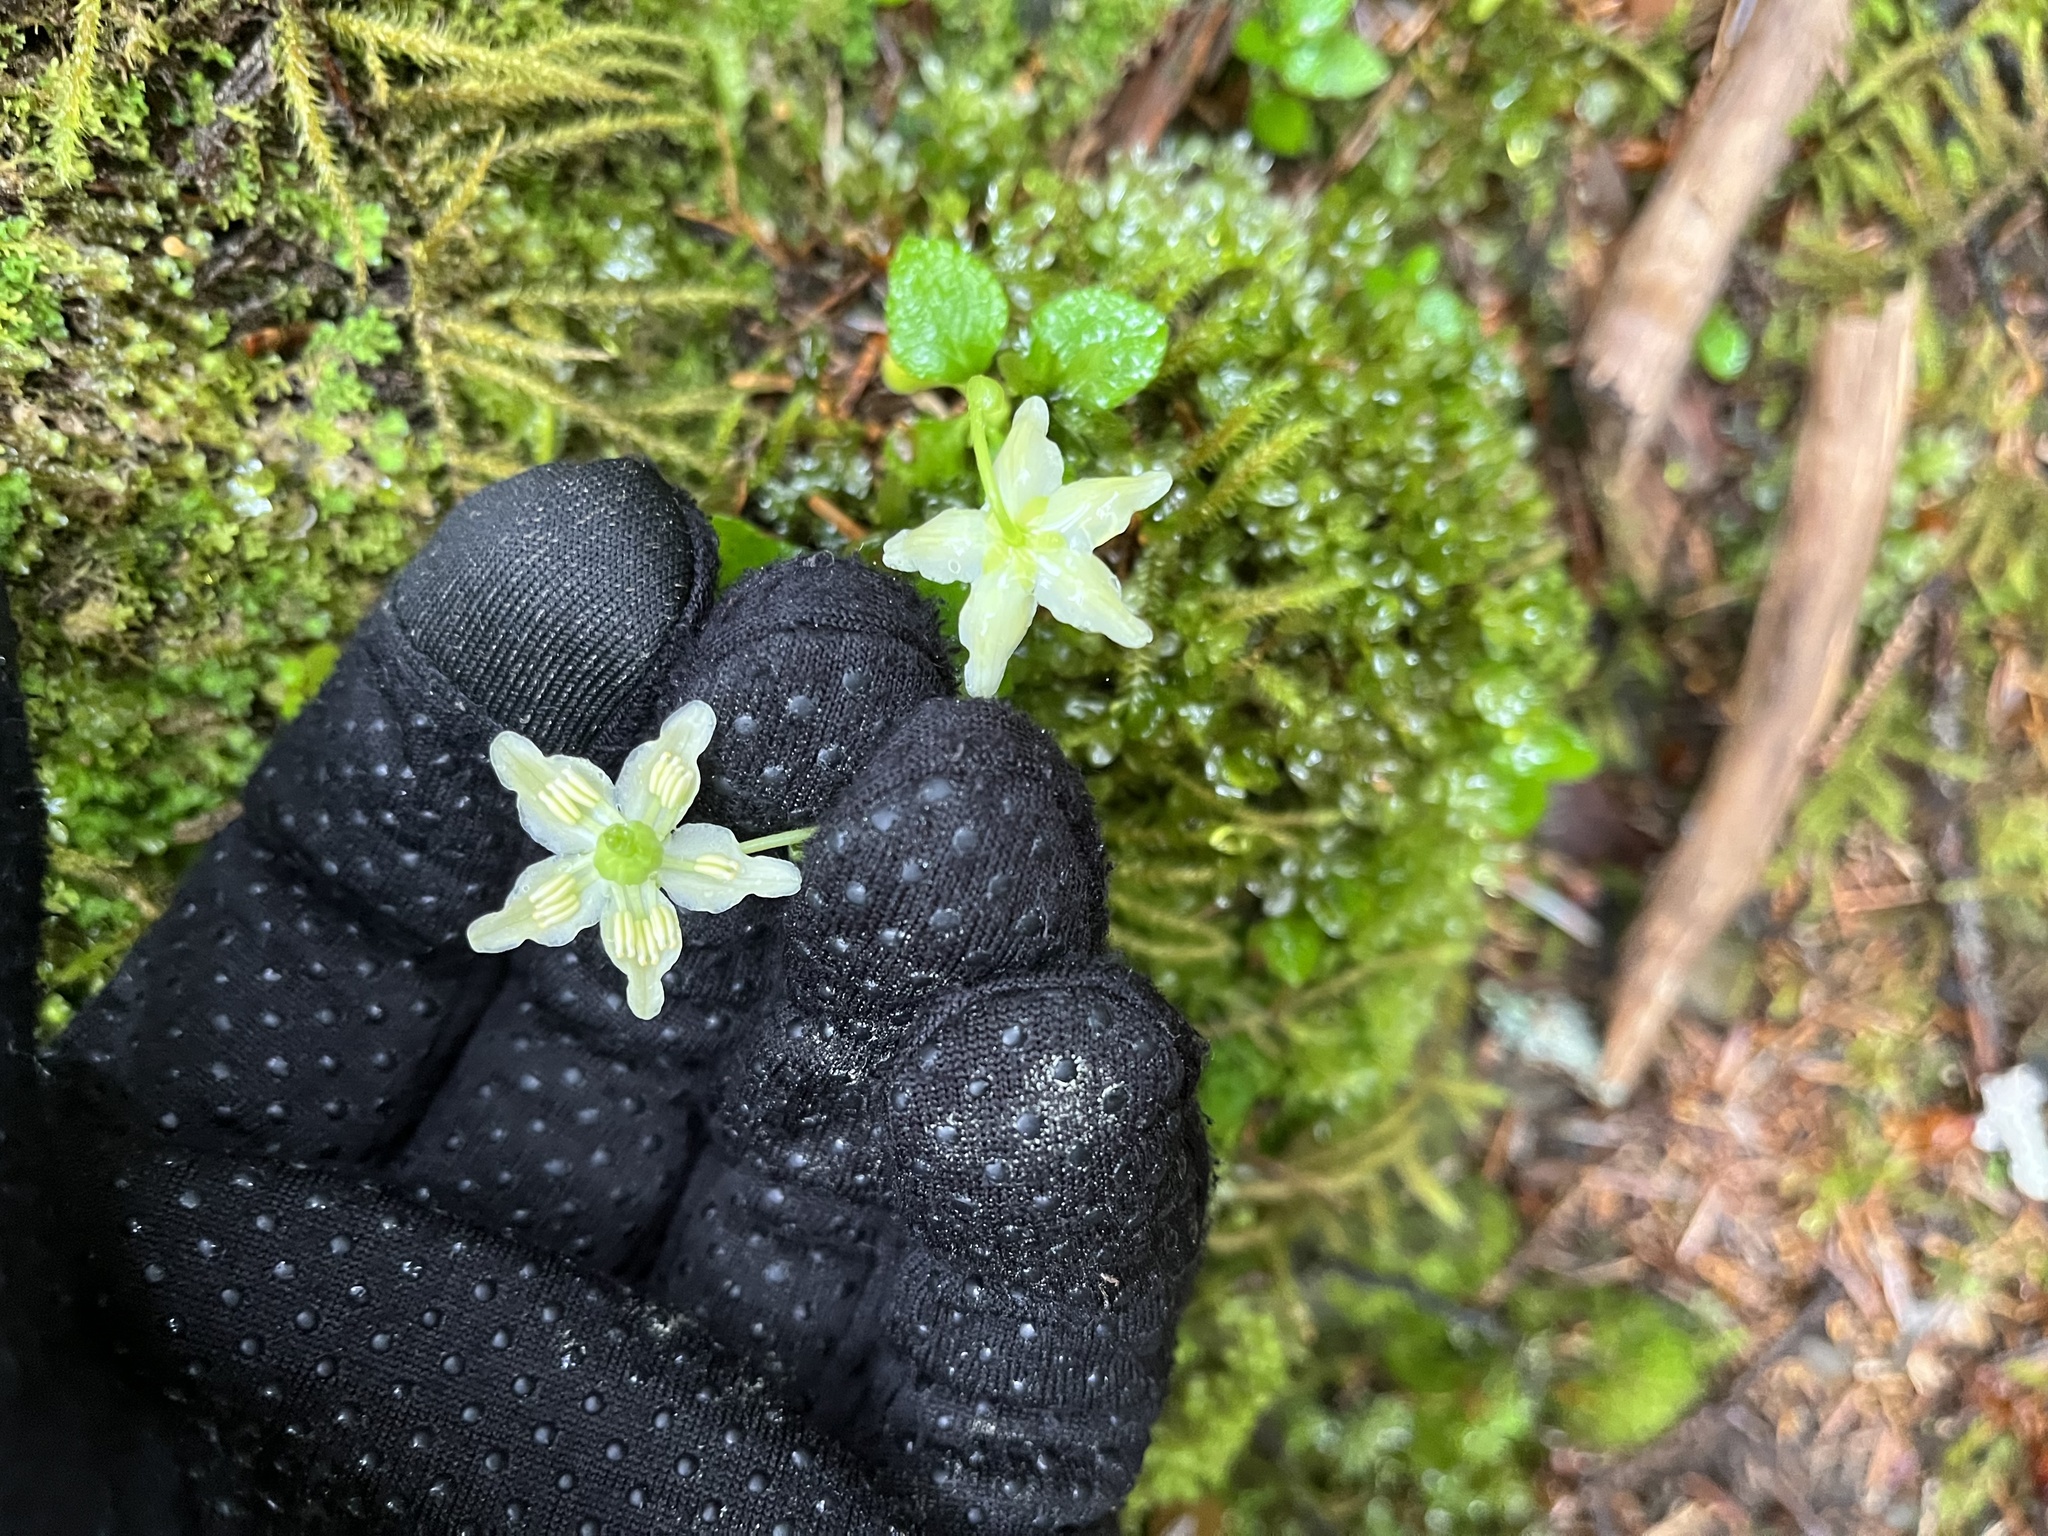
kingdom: Plantae
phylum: Tracheophyta
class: Magnoliopsida
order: Ericales
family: Ericaceae
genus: Moneses
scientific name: Moneses uniflora
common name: One-flowered wintergreen
